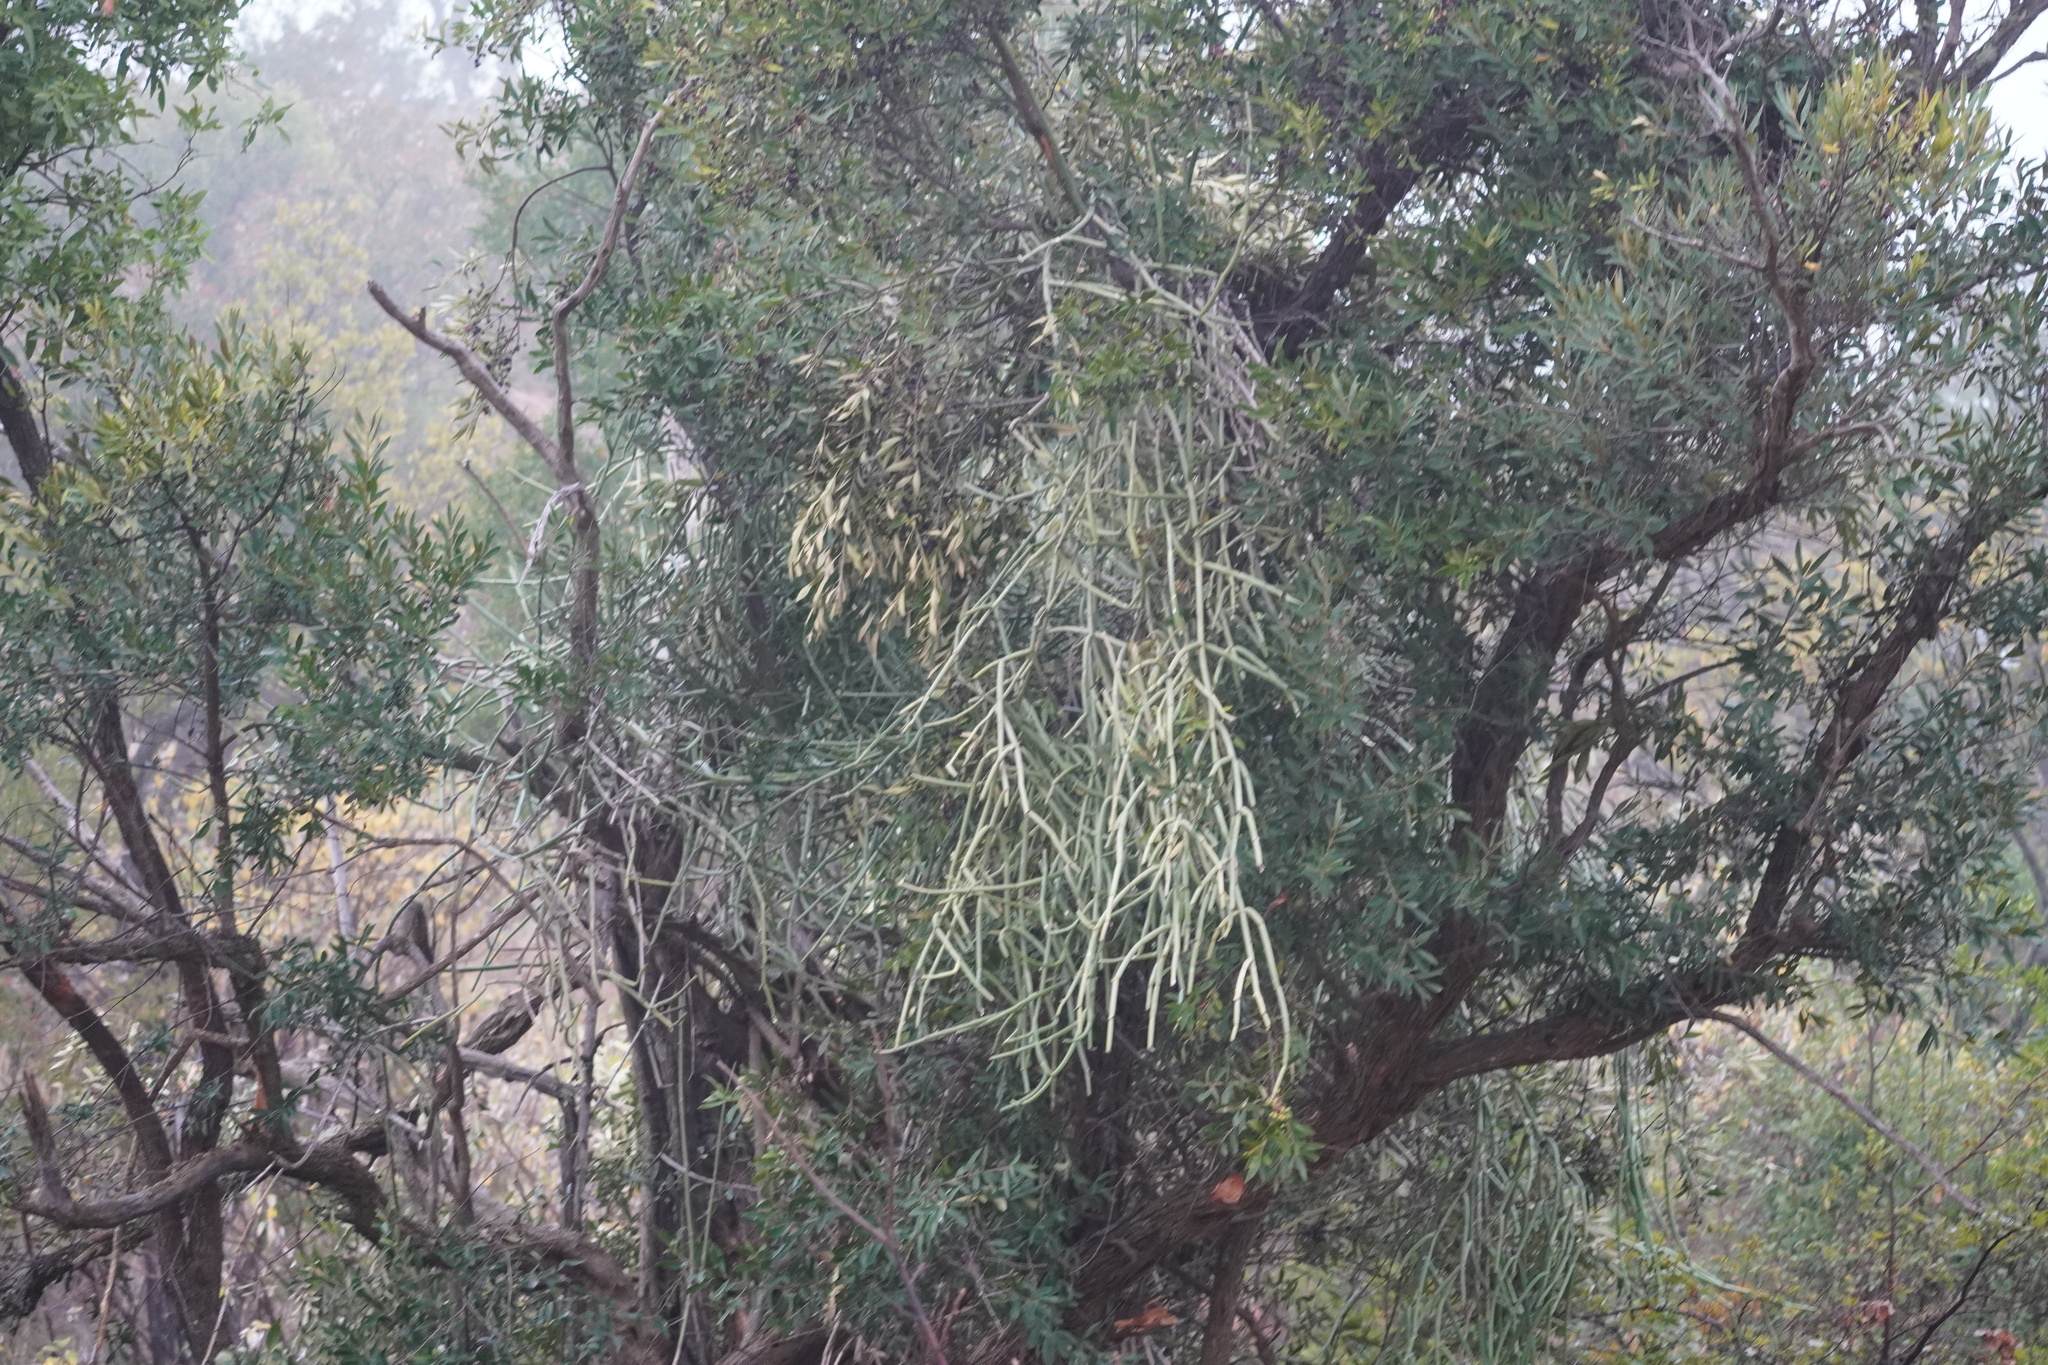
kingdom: Plantae
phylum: Tracheophyta
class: Magnoliopsida
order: Gentianales
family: Apocynaceae
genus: Cynanchum
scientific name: Cynanchum viminale
